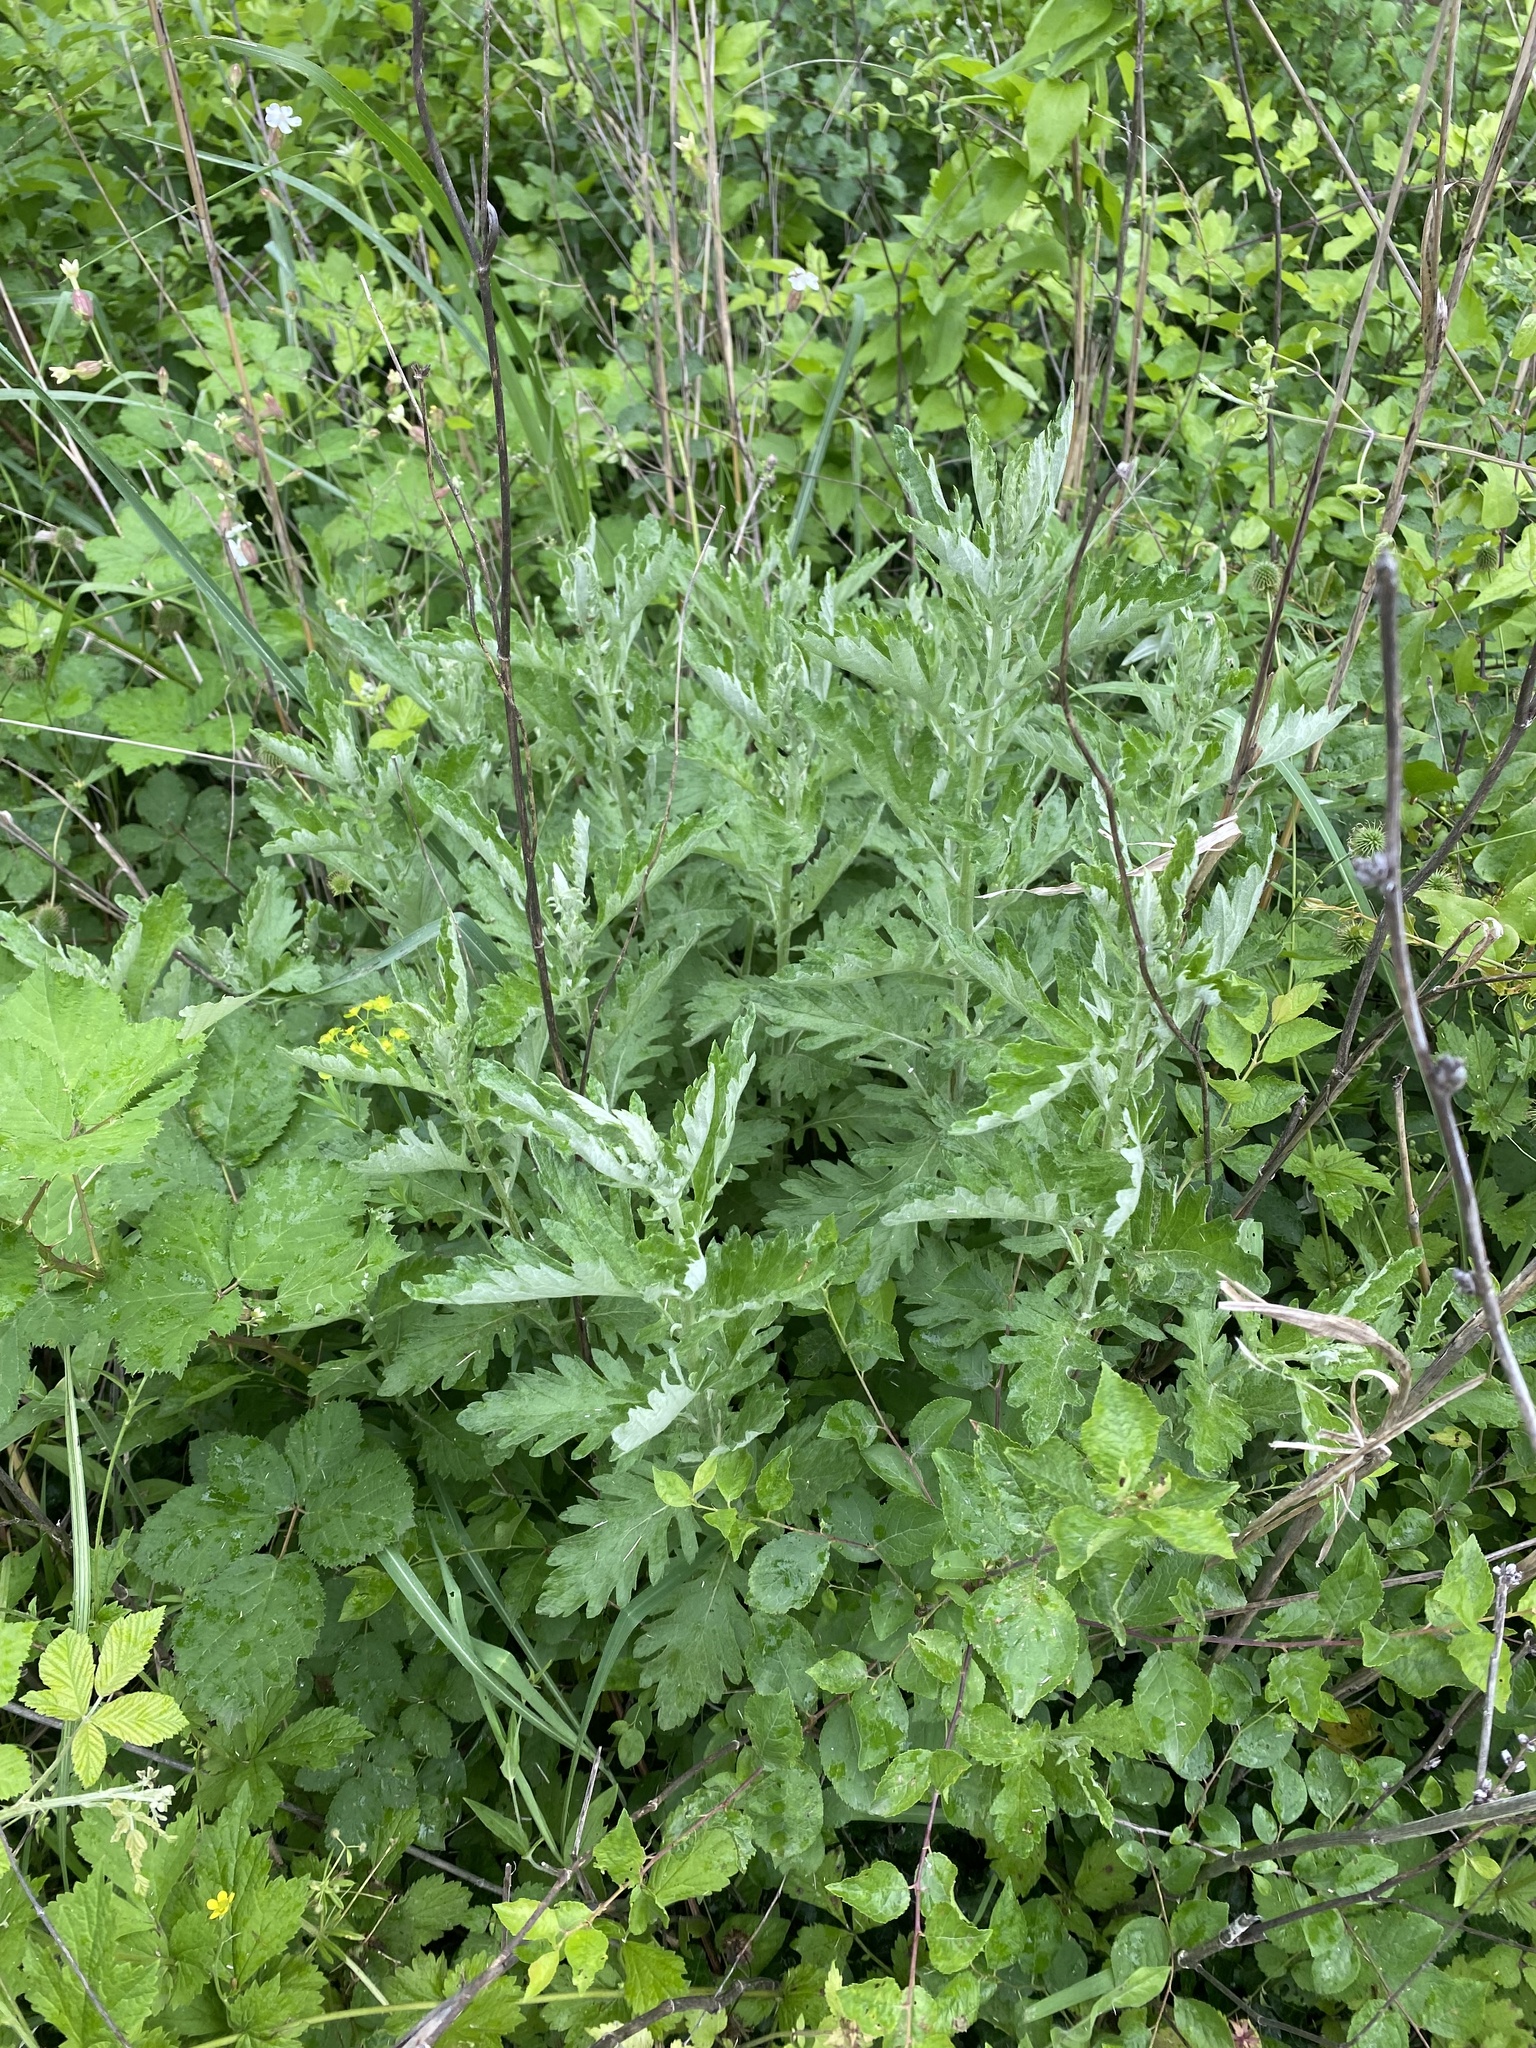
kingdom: Plantae
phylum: Tracheophyta
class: Magnoliopsida
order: Asterales
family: Asteraceae
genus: Jacobaea
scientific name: Jacobaea erucifolia
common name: Hoary ragwort
